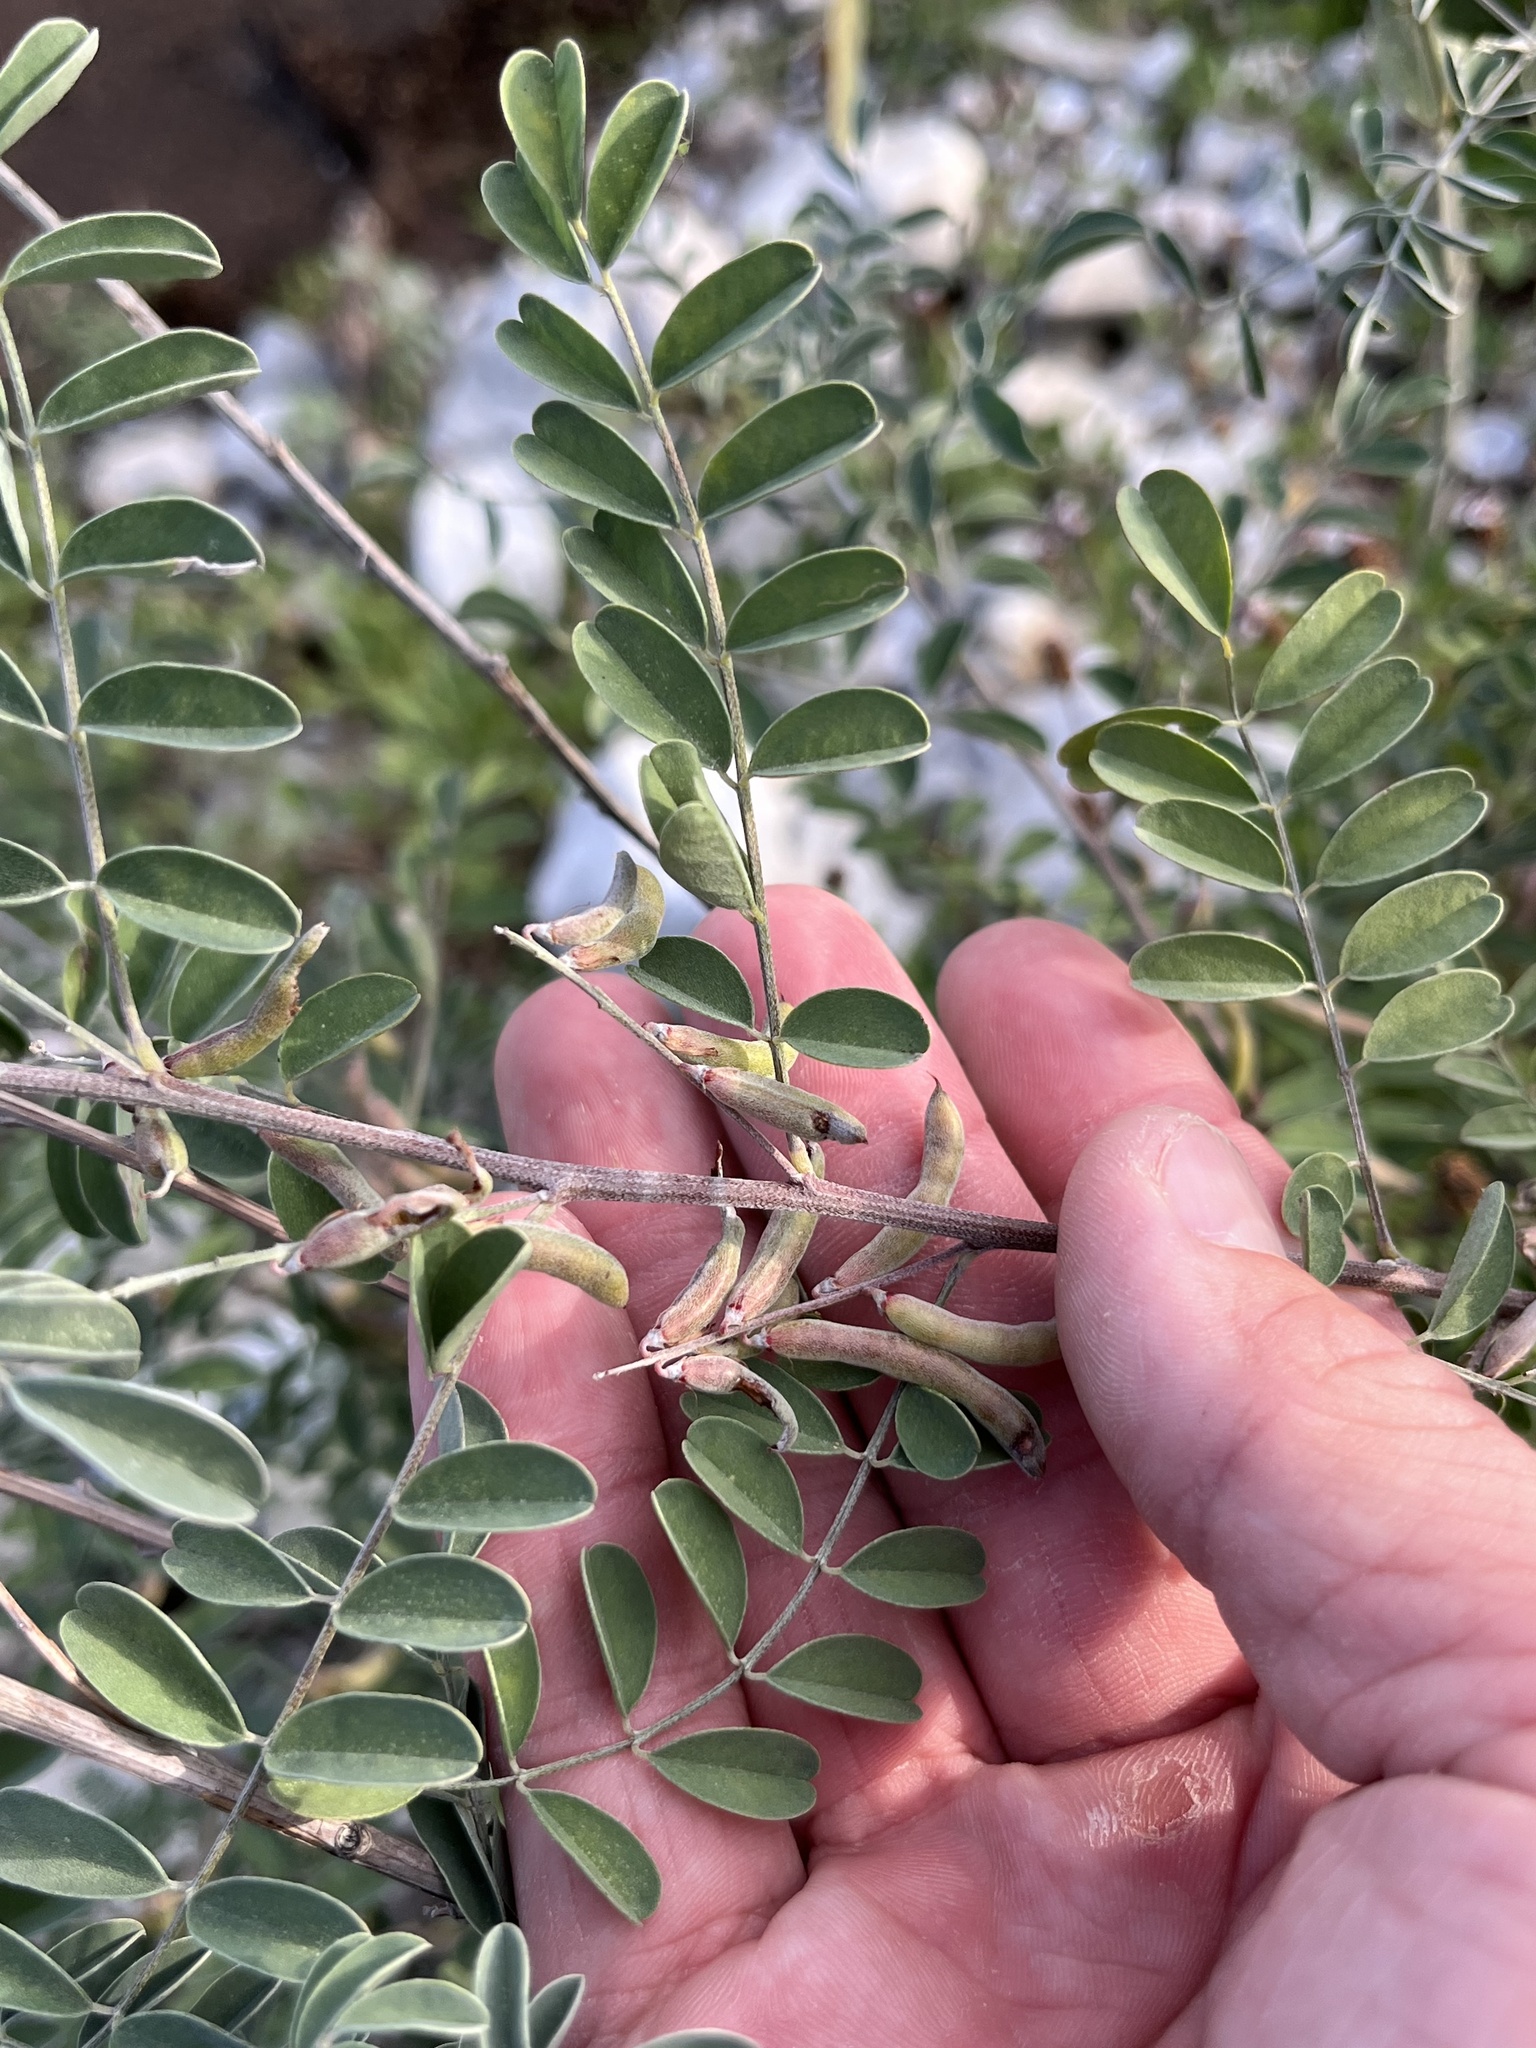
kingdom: Plantae
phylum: Tracheophyta
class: Magnoliopsida
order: Fabales
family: Fabaceae
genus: Indigofera
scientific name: Indigofera lindheimeriana
